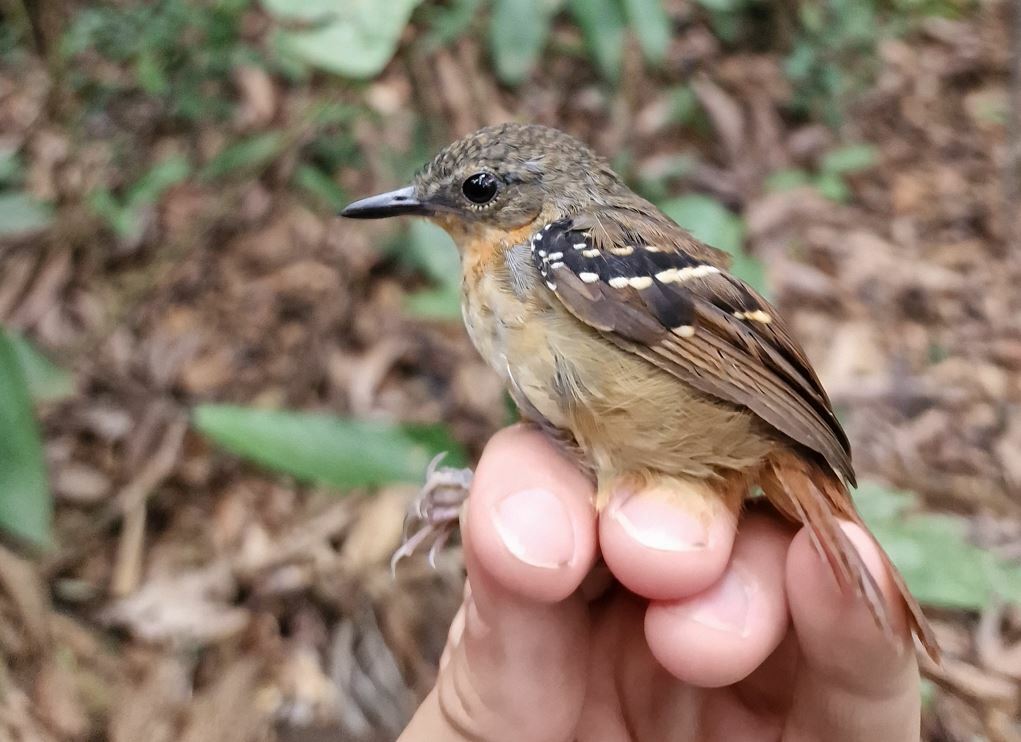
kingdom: Animalia
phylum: Chordata
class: Aves
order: Passeriformes
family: Thamnophilidae
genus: Myrmeciza
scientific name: Myrmeciza hemimelaena
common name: Southern chestnut-tailed antbird
